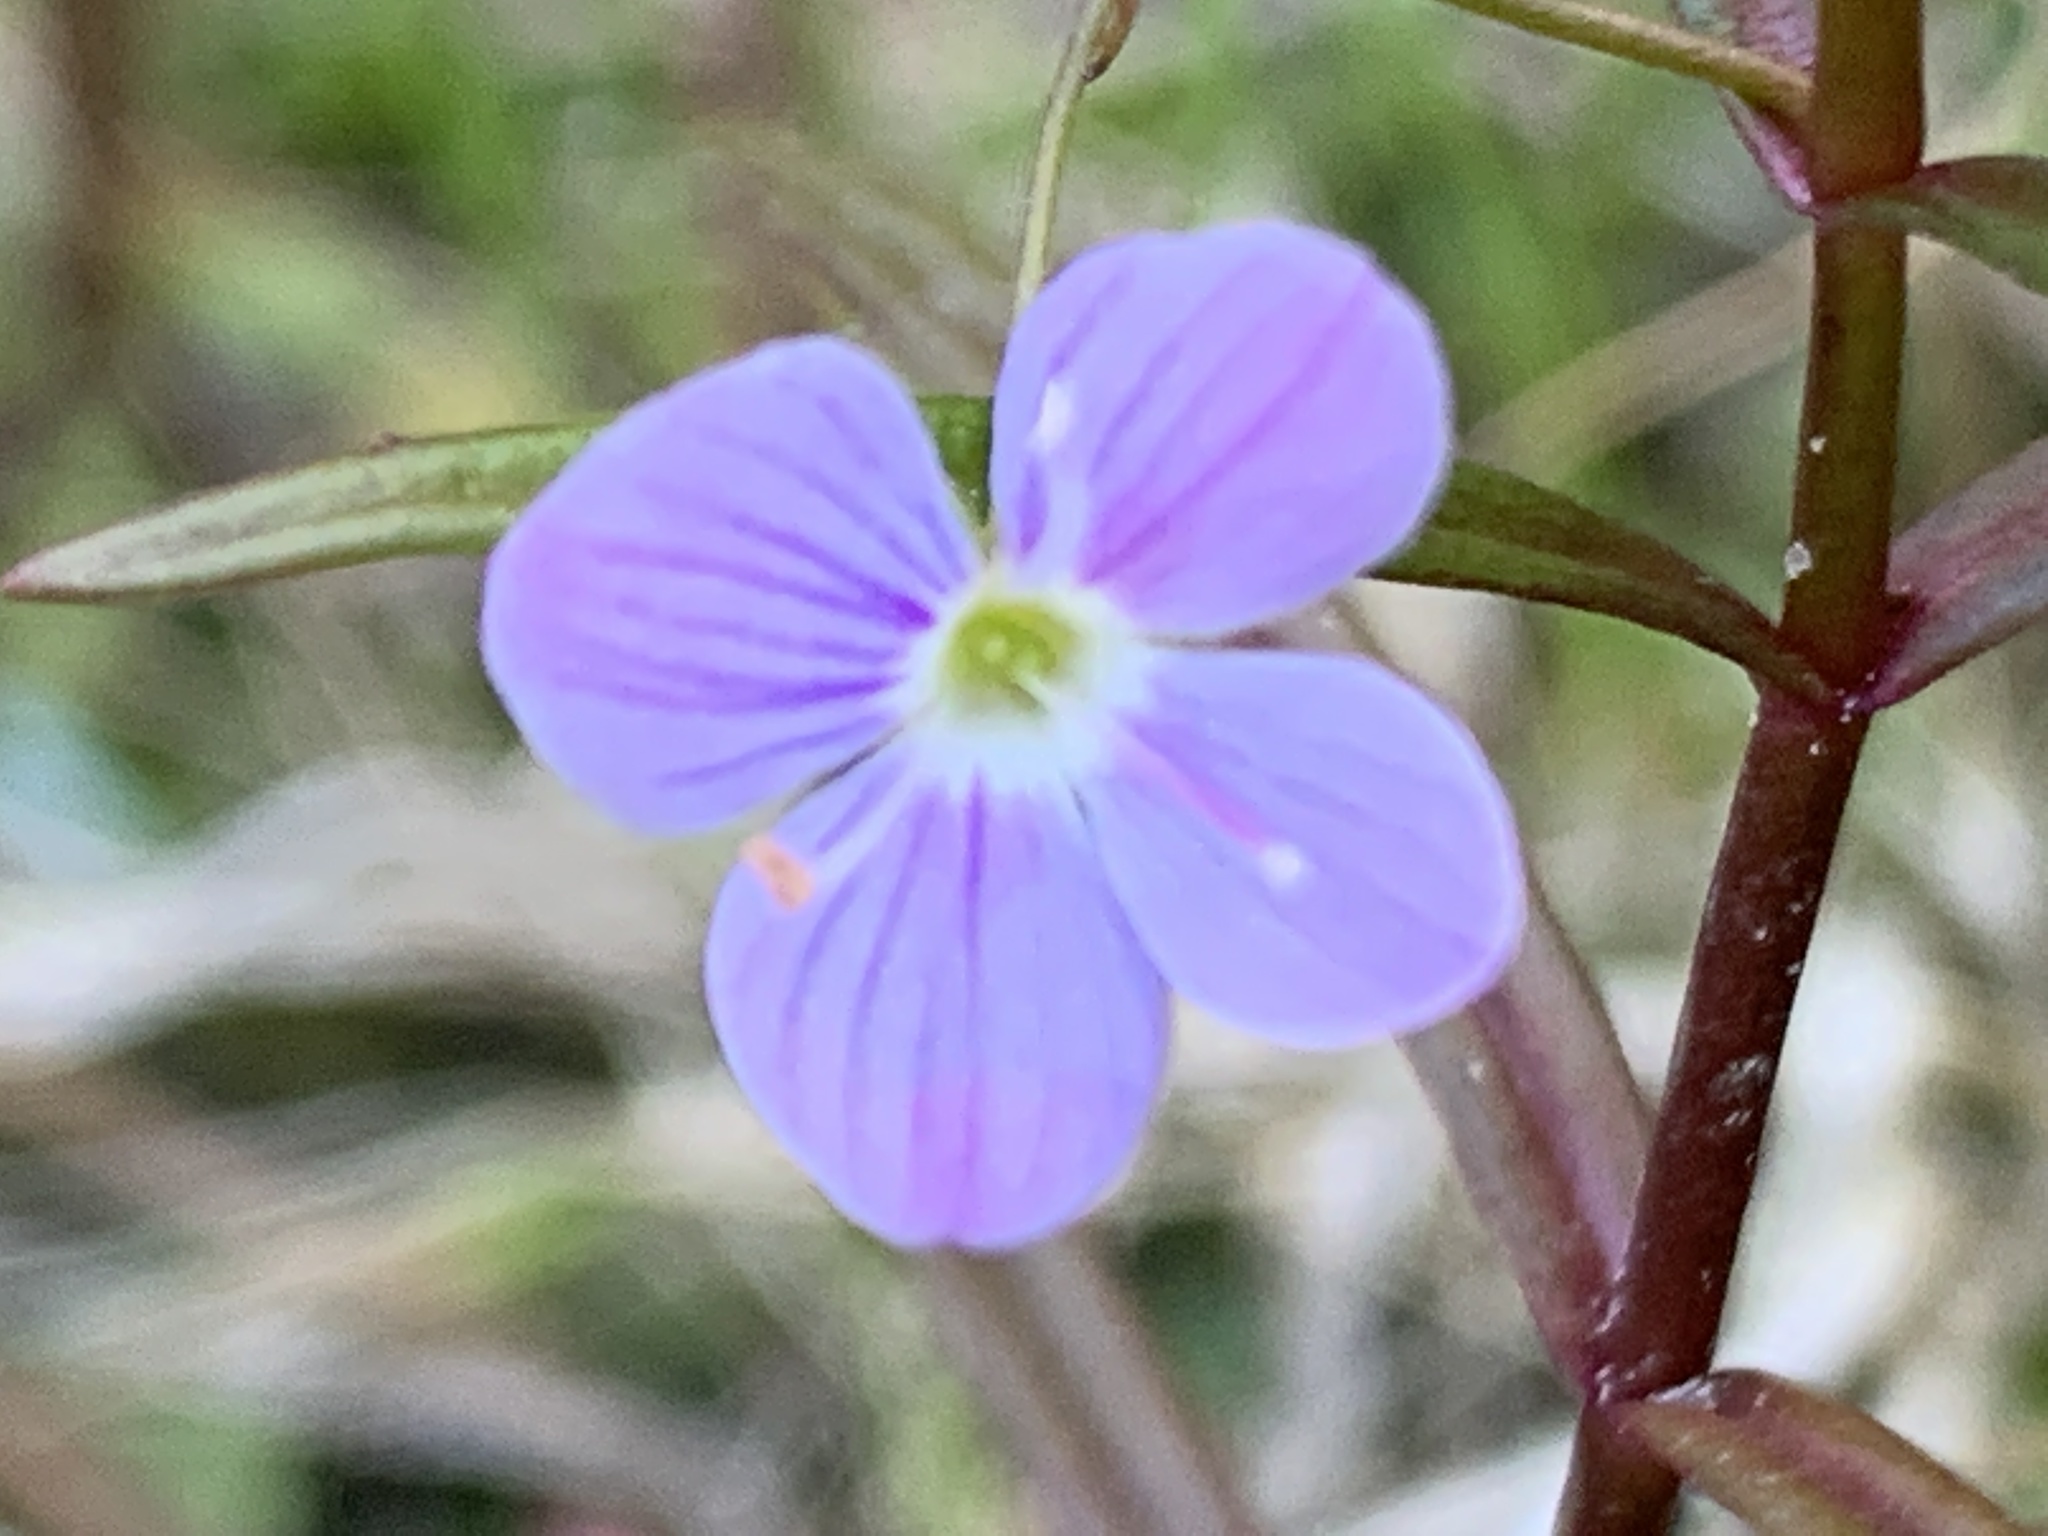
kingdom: Plantae
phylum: Tracheophyta
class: Magnoliopsida
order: Lamiales
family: Plantaginaceae
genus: Veronica
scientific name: Veronica scutellata
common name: Marsh speedwell
